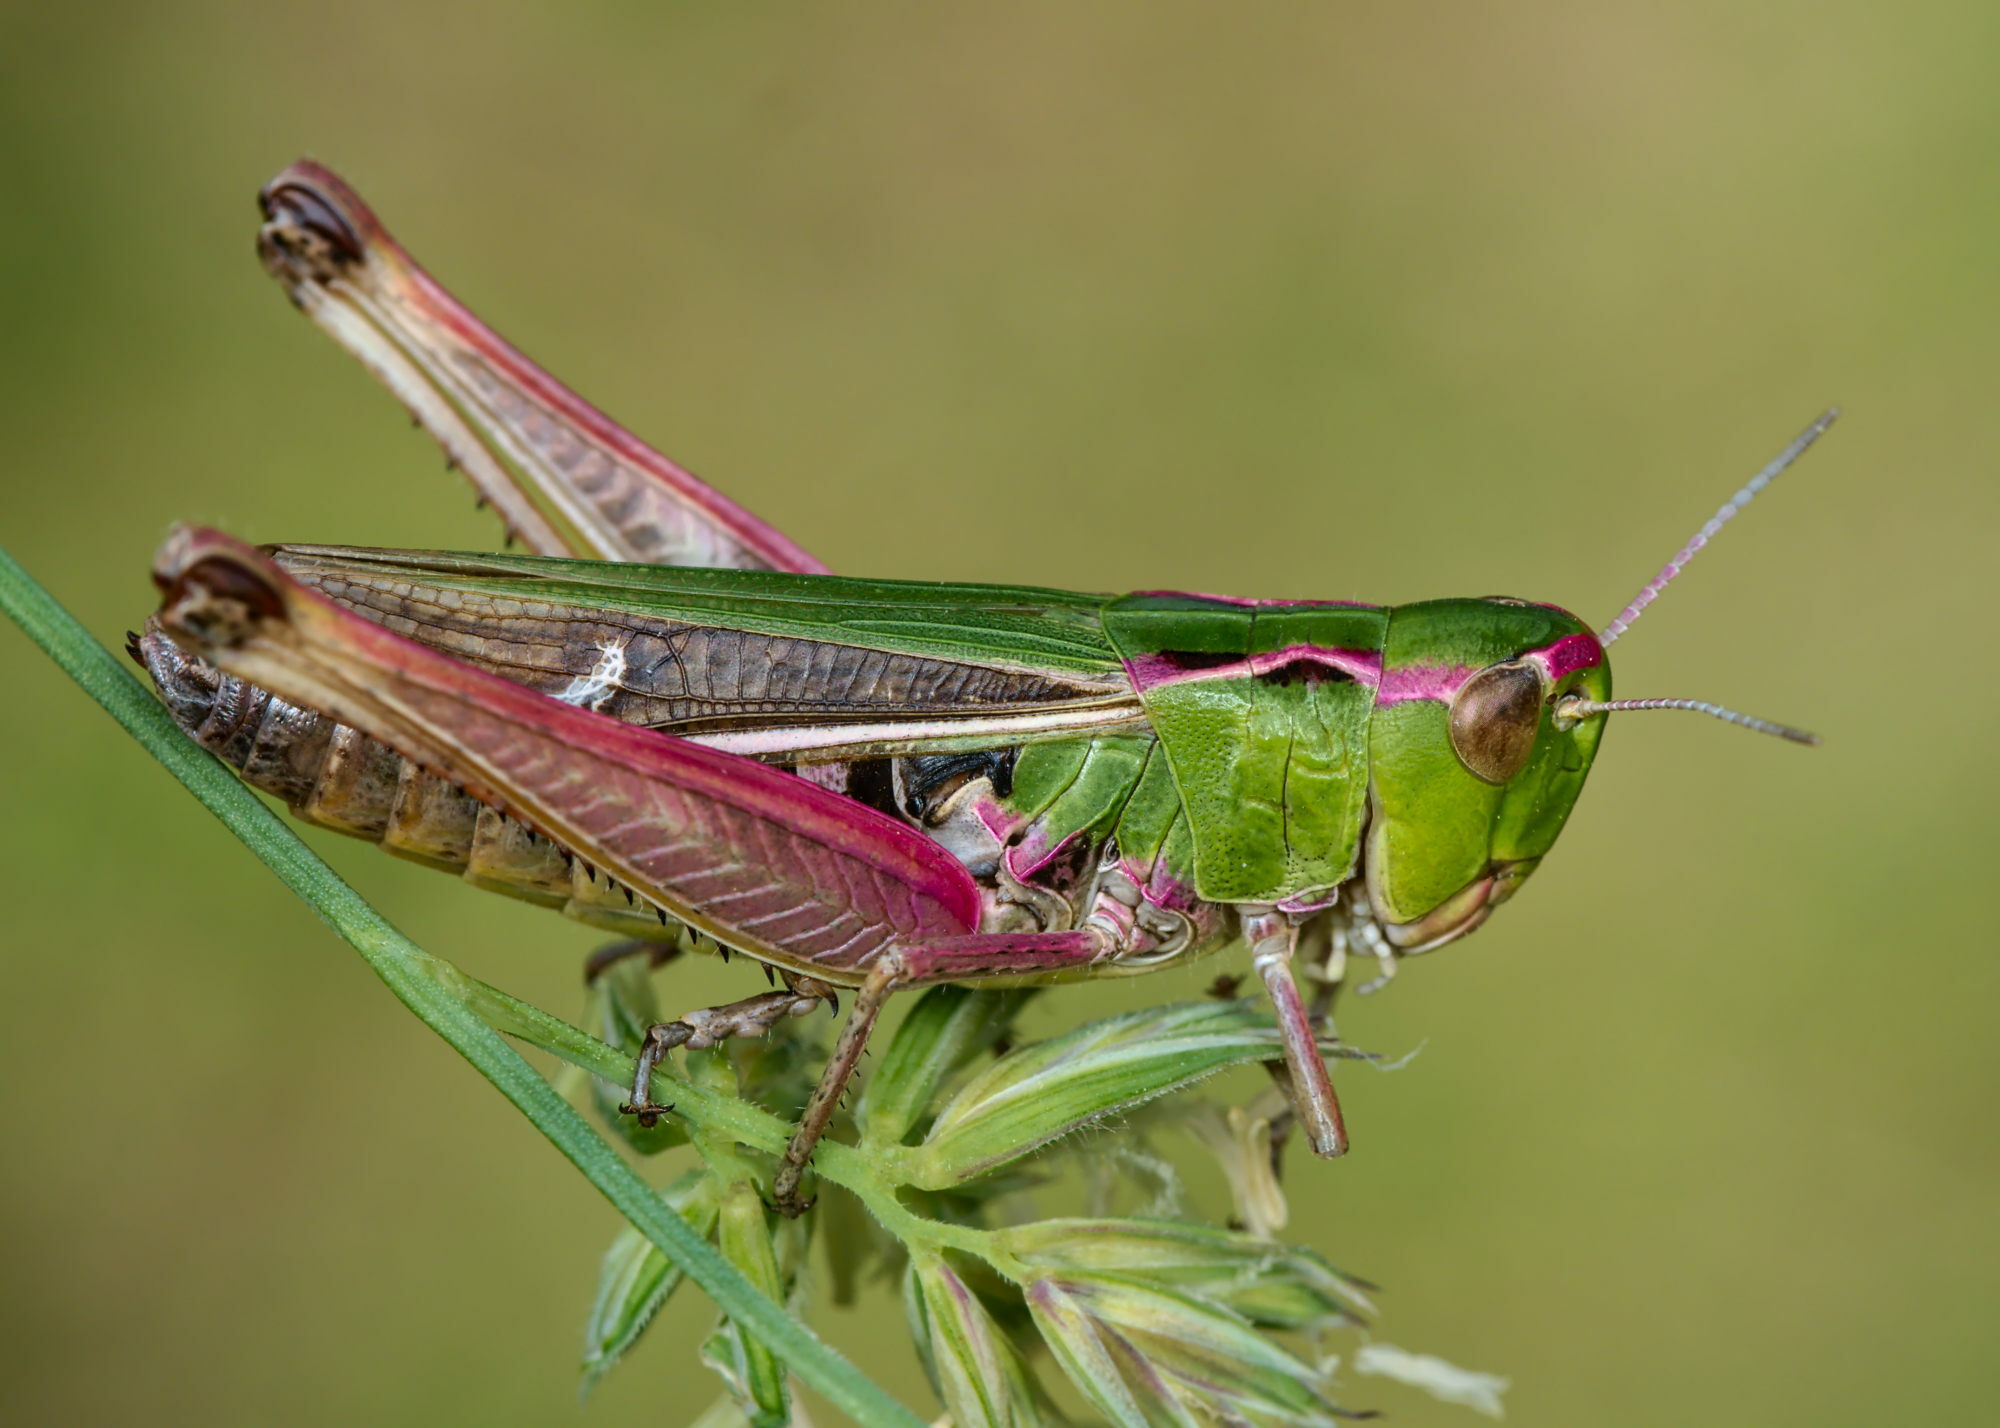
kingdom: Animalia
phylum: Arthropoda
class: Insecta
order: Orthoptera
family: Acrididae
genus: Stenobothrus
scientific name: Stenobothrus lineatus
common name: Stripe-winged grasshopper
